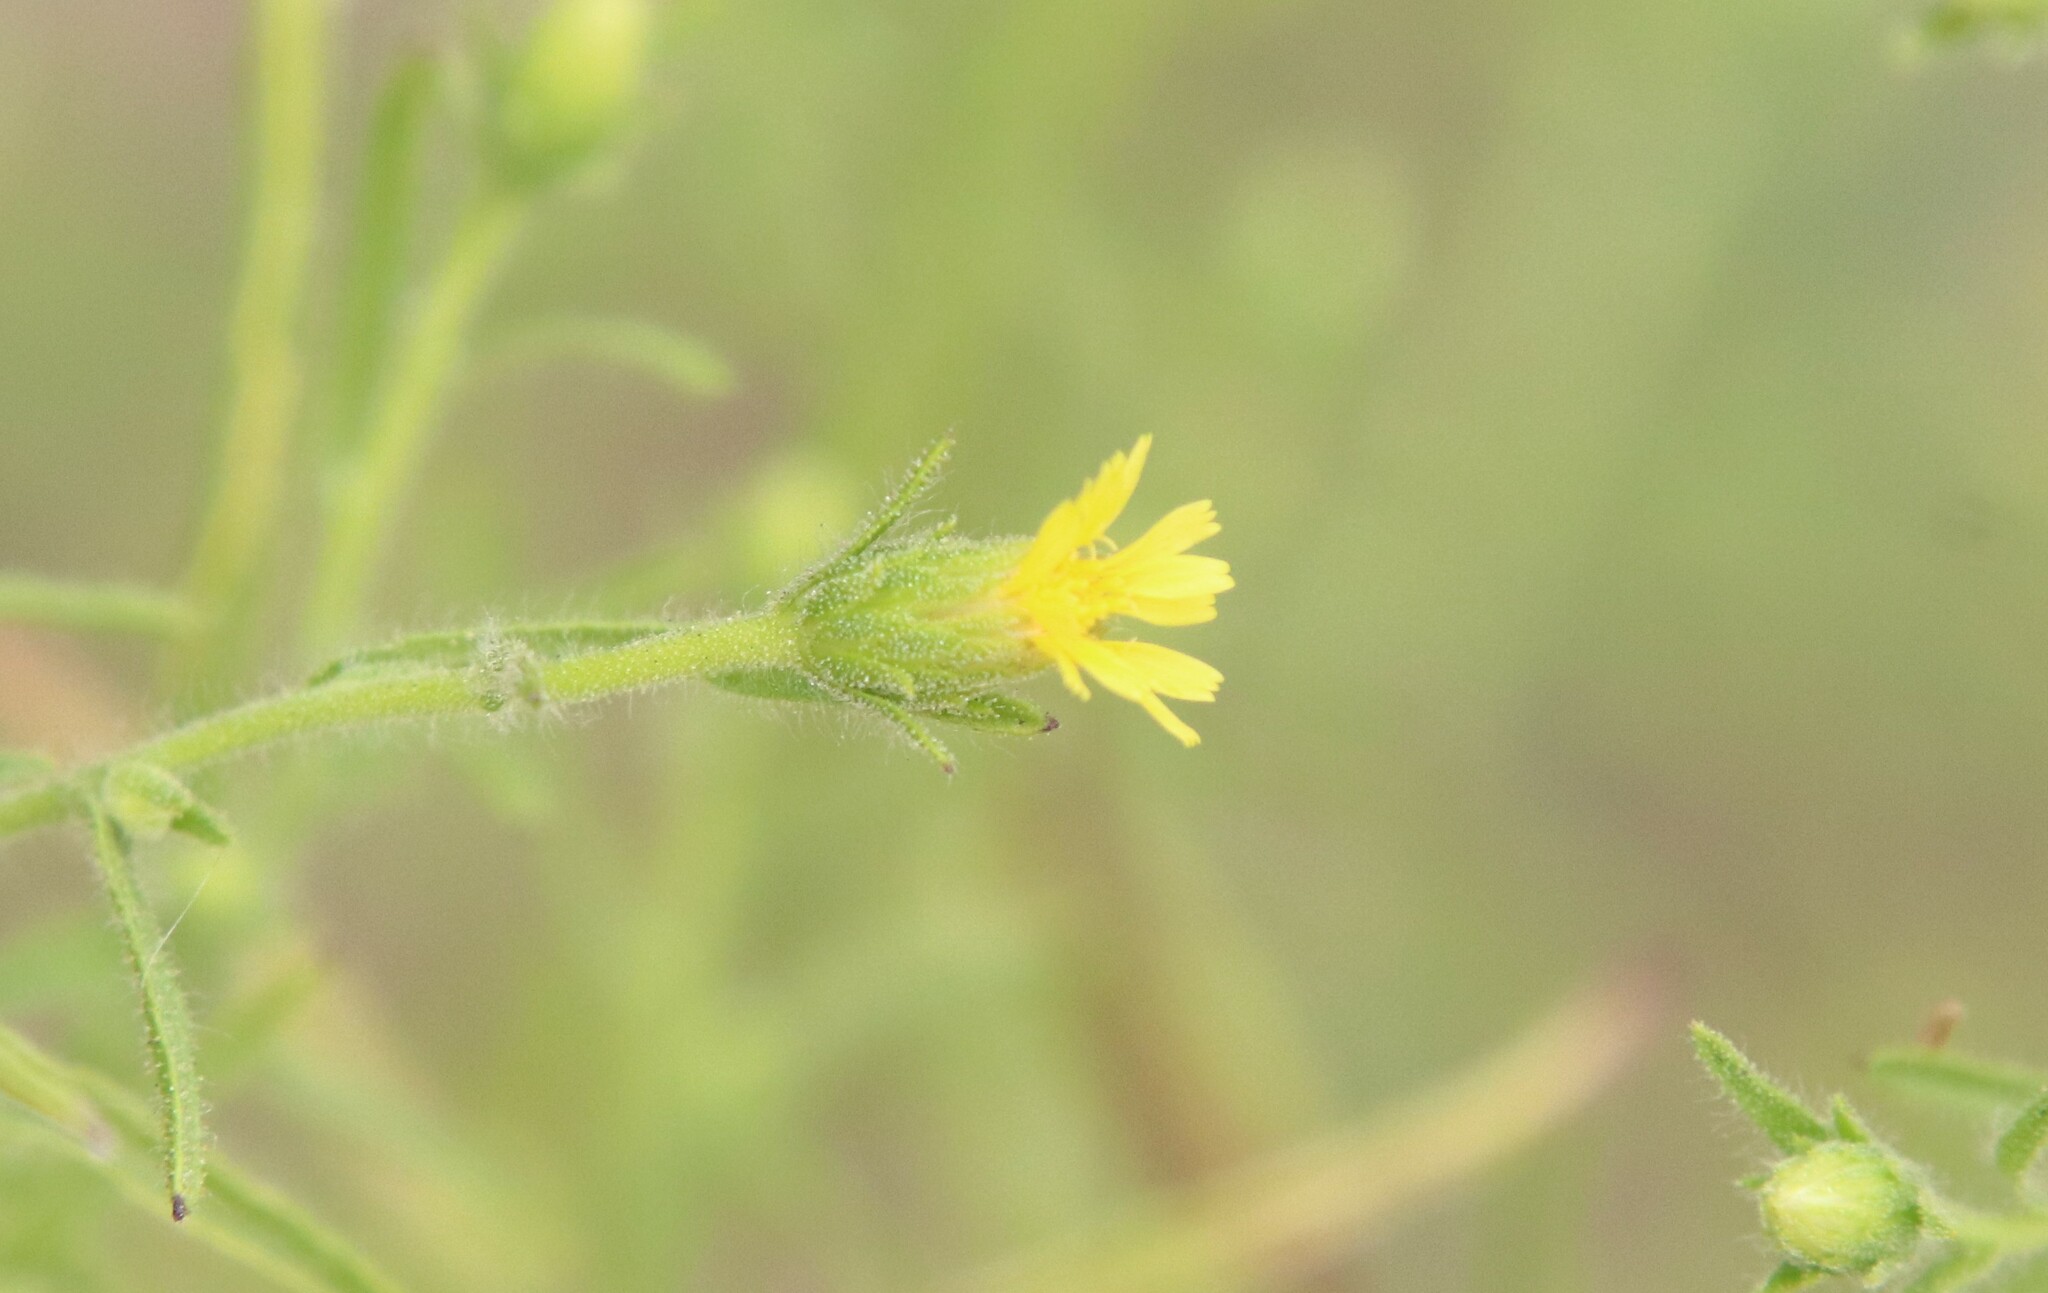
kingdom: Plantae
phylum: Tracheophyta
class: Magnoliopsida
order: Asterales
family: Asteraceae
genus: Dittrichia
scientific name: Dittrichia graveolens
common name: Stinking fleabane
